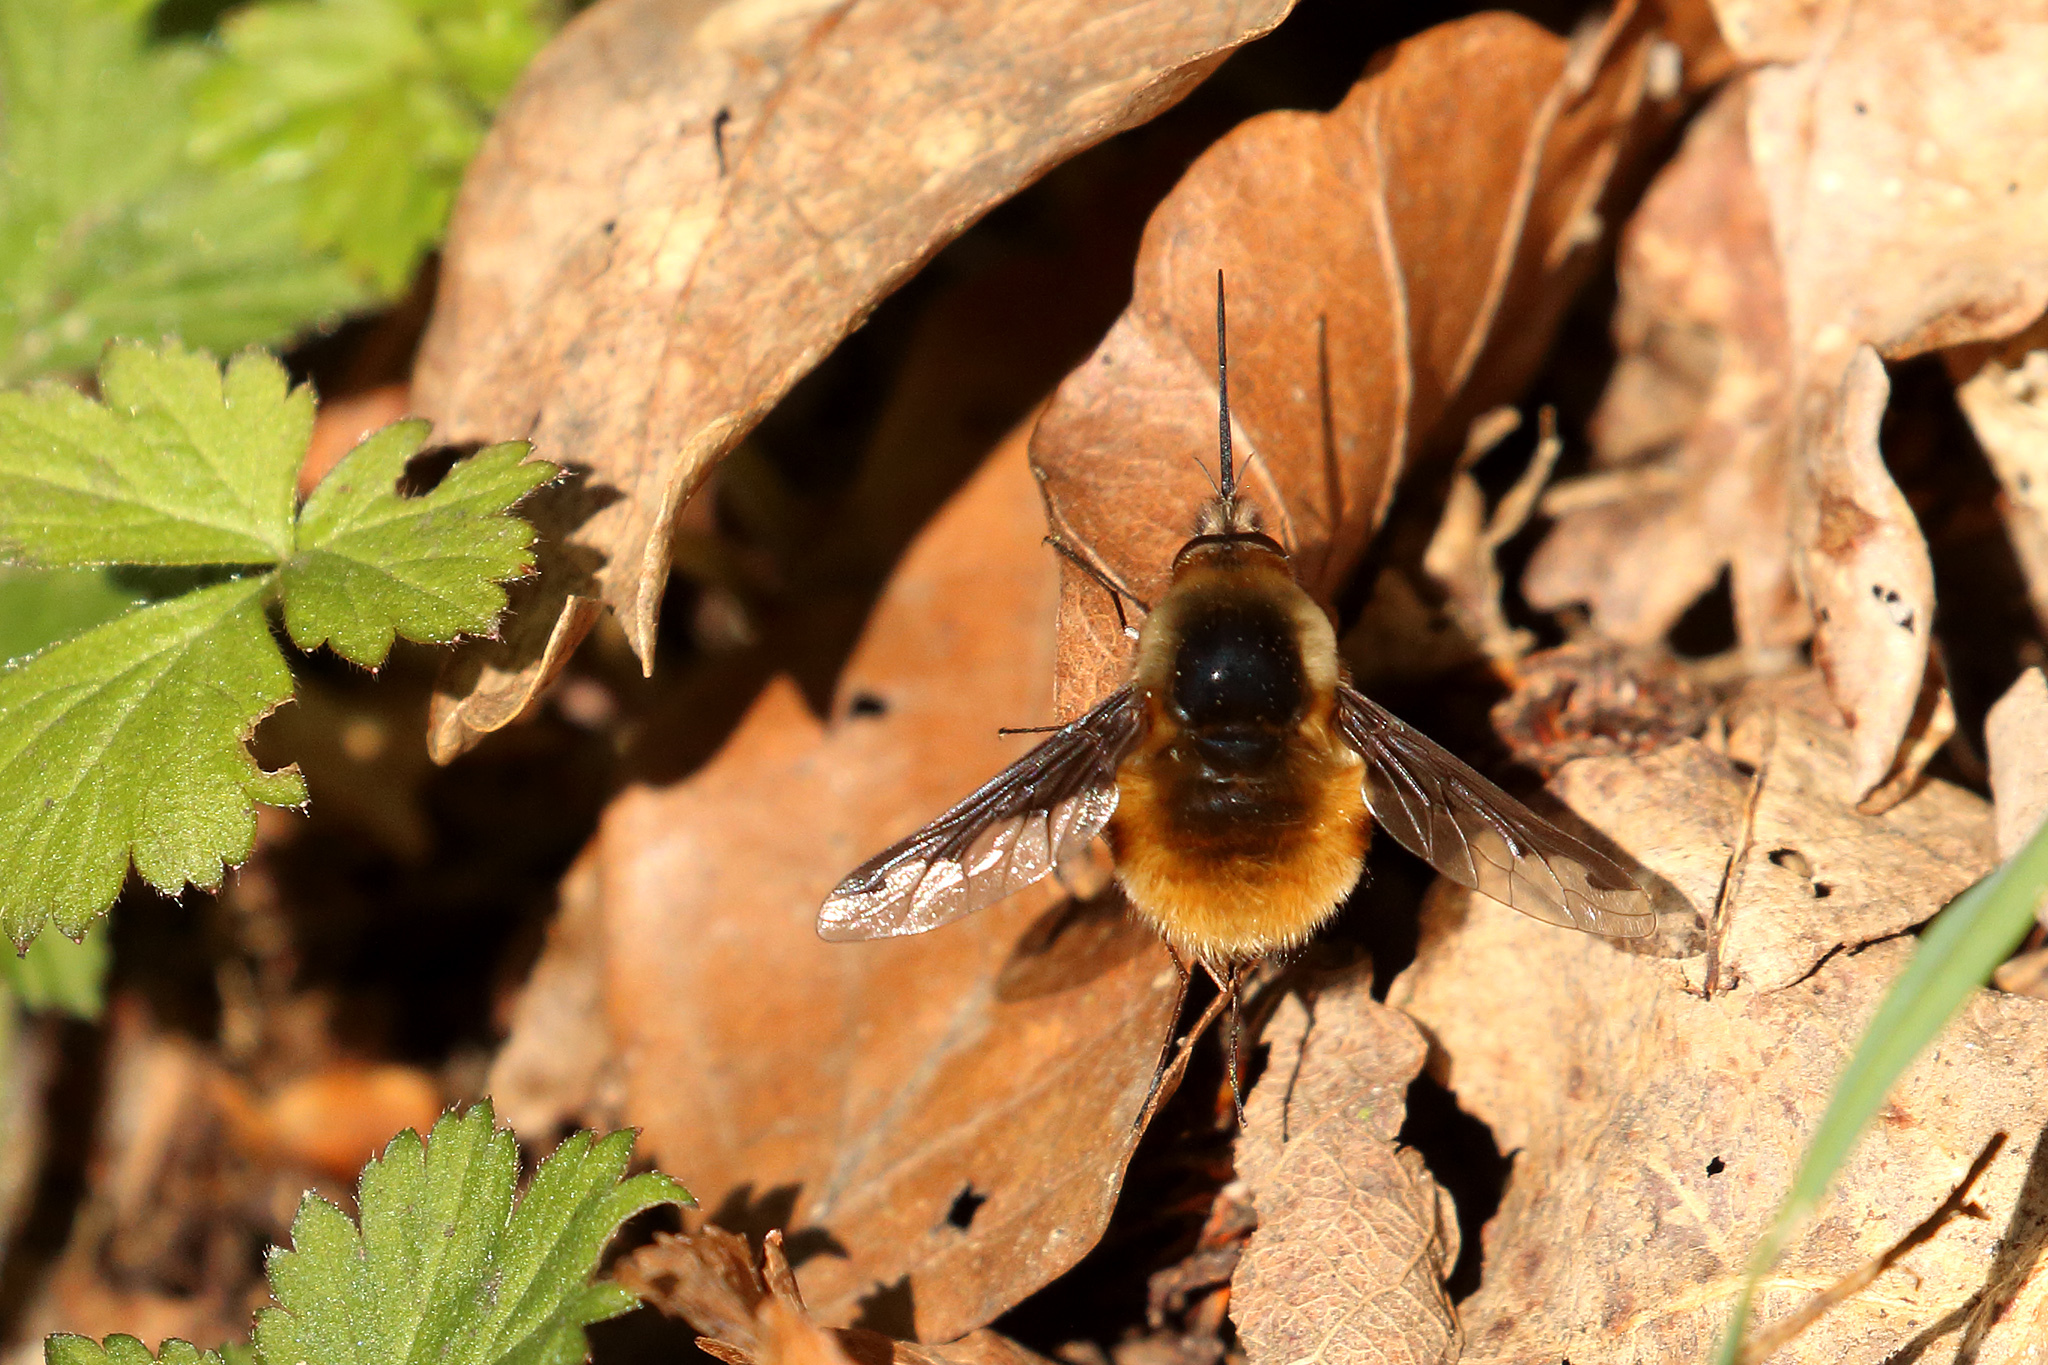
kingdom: Animalia
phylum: Arthropoda
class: Insecta
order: Diptera
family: Bombyliidae
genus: Bombylius
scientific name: Bombylius major
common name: Bee fly
